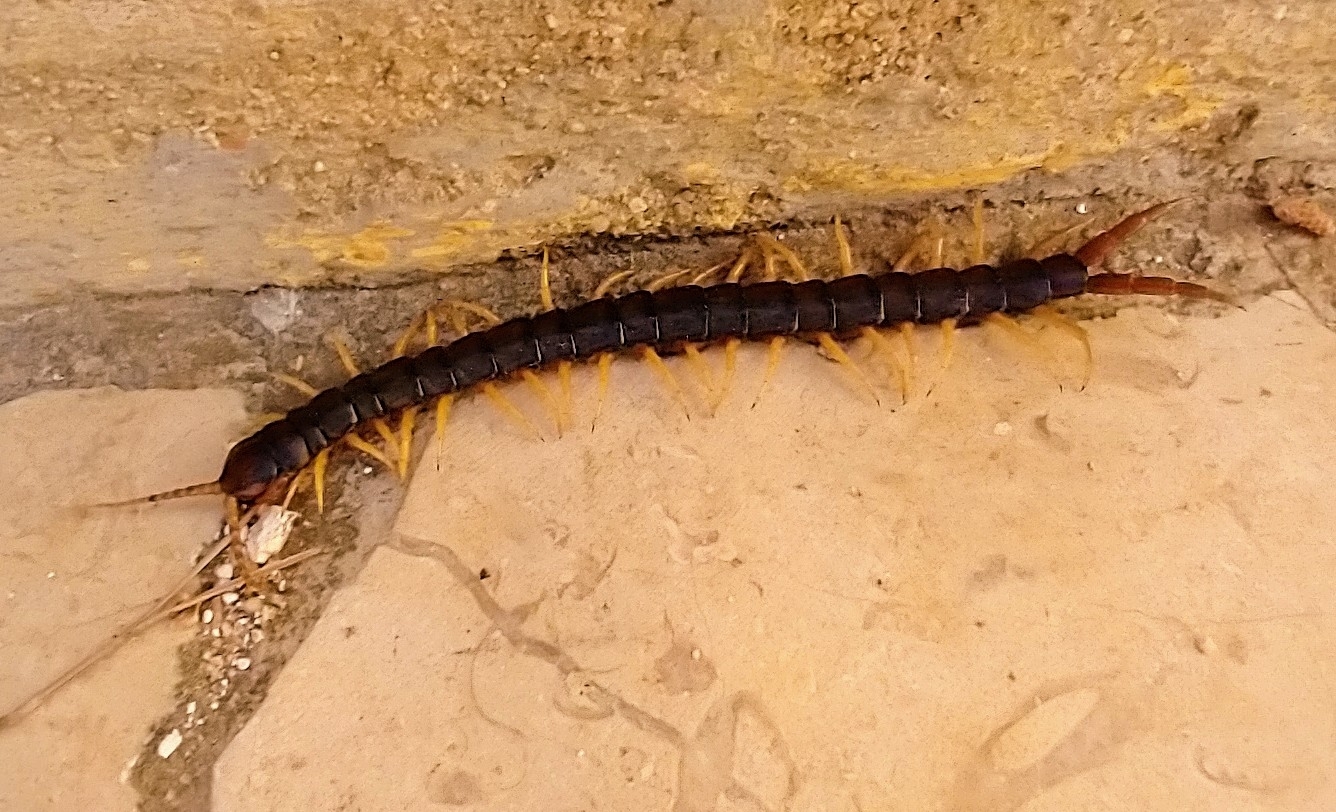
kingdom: Animalia
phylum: Arthropoda
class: Chilopoda
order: Scolopendromorpha
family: Scolopendridae
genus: Scolopendra
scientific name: Scolopendra cingulata
